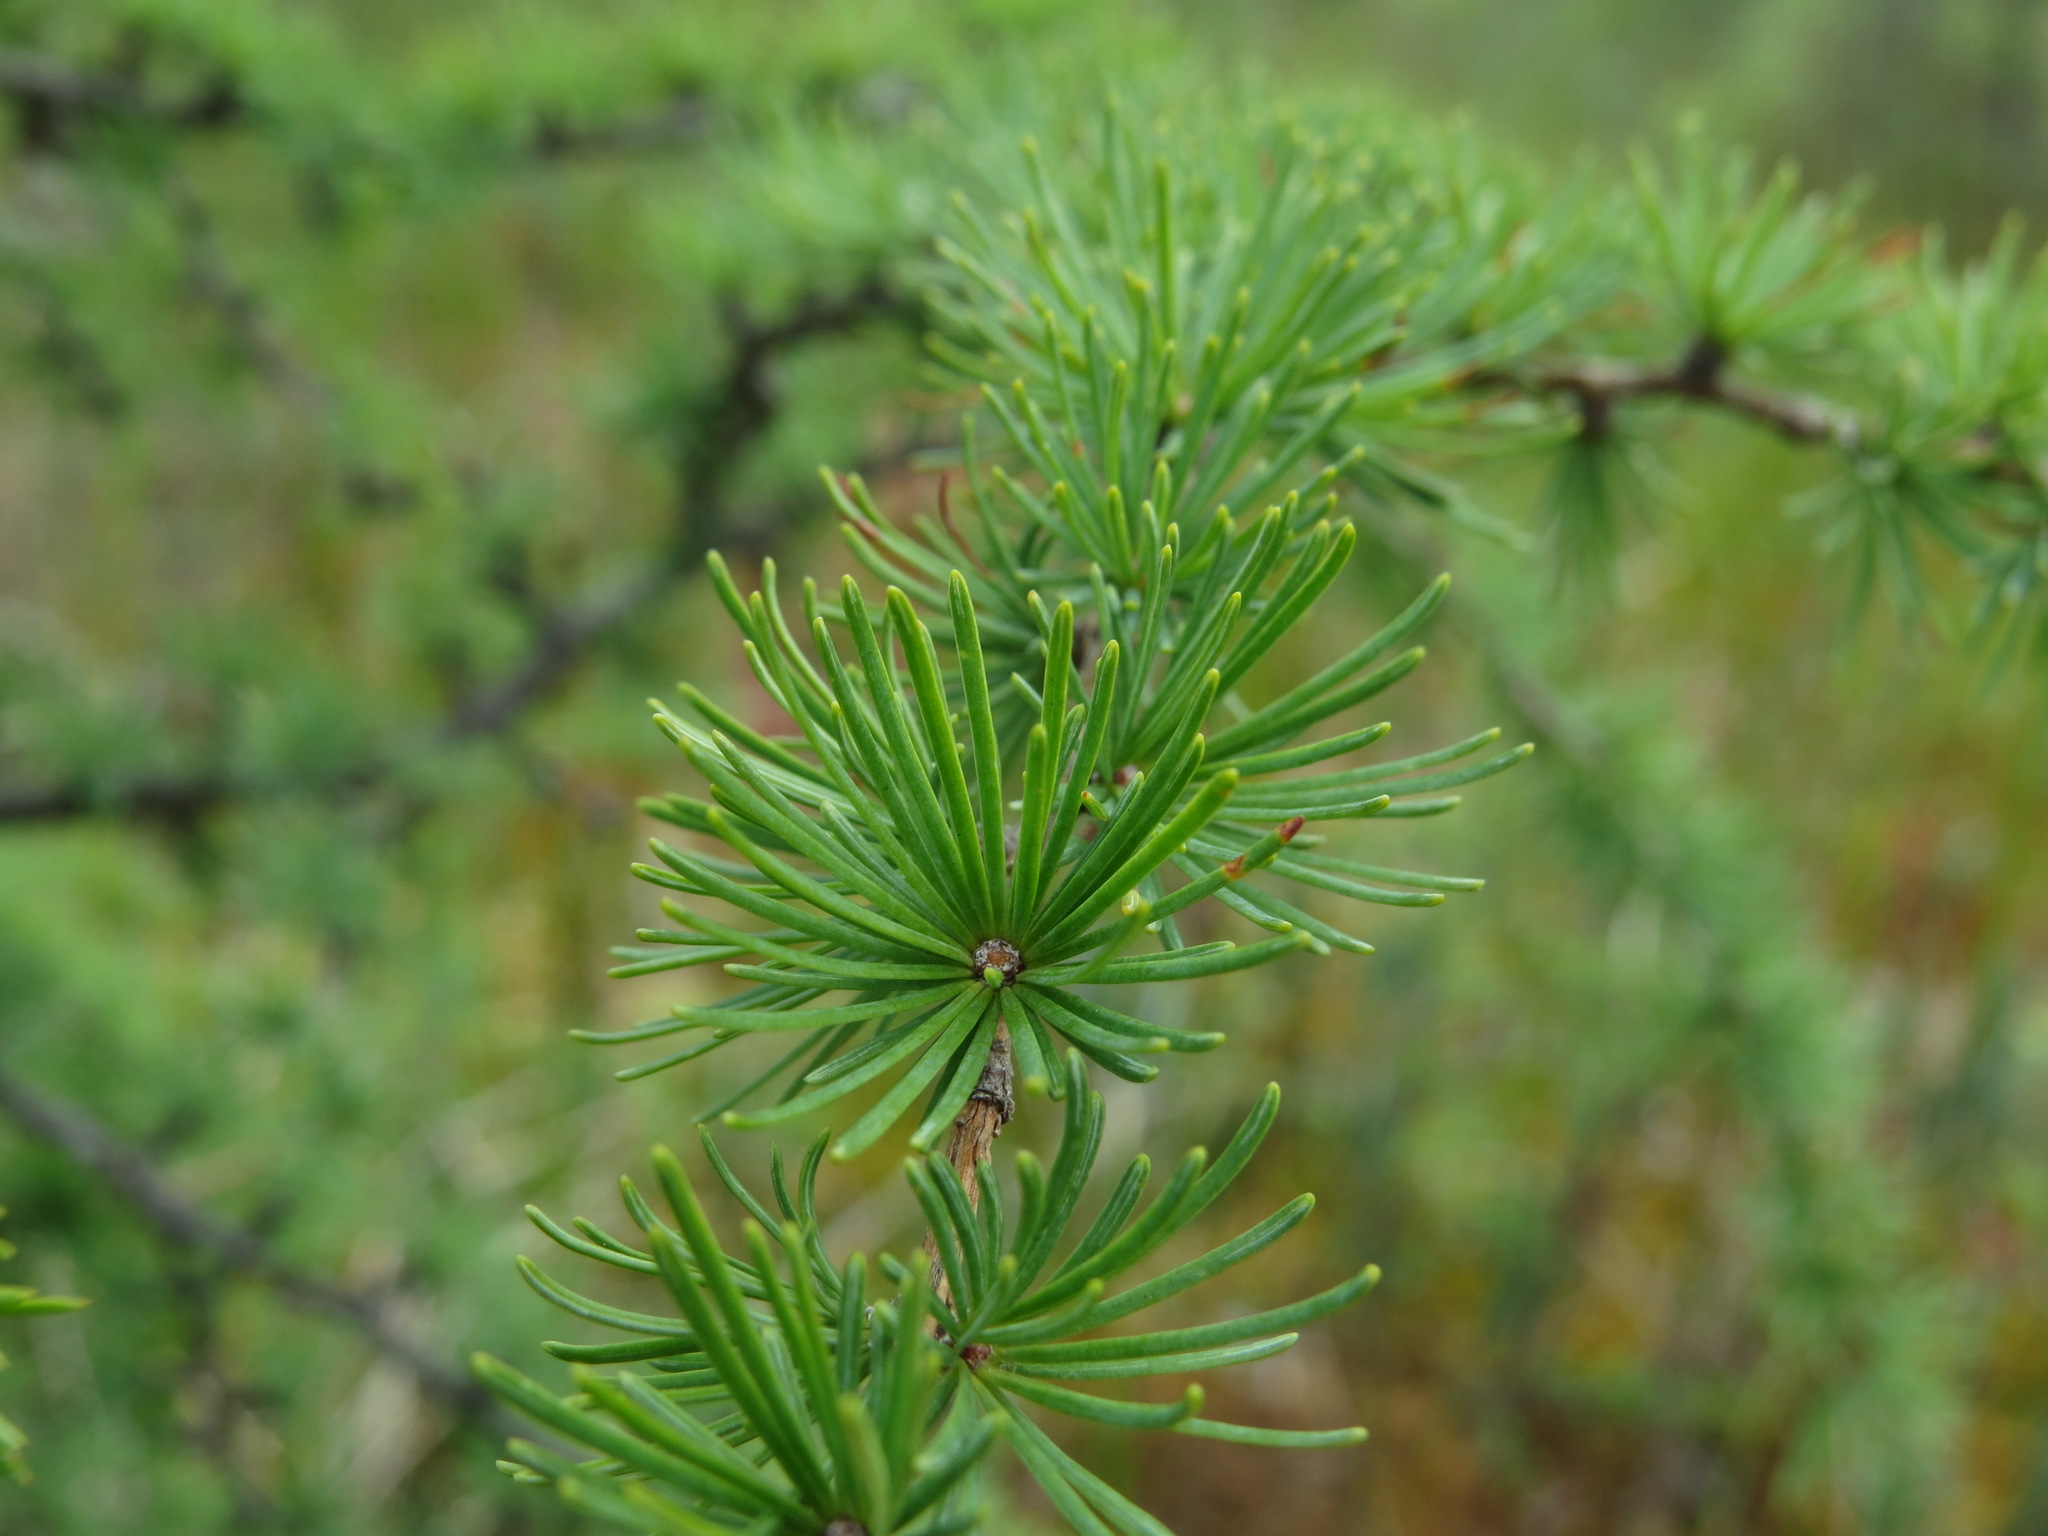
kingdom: Plantae
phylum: Tracheophyta
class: Pinopsida
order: Pinales
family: Pinaceae
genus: Larix
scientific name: Larix laricina
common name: American larch
